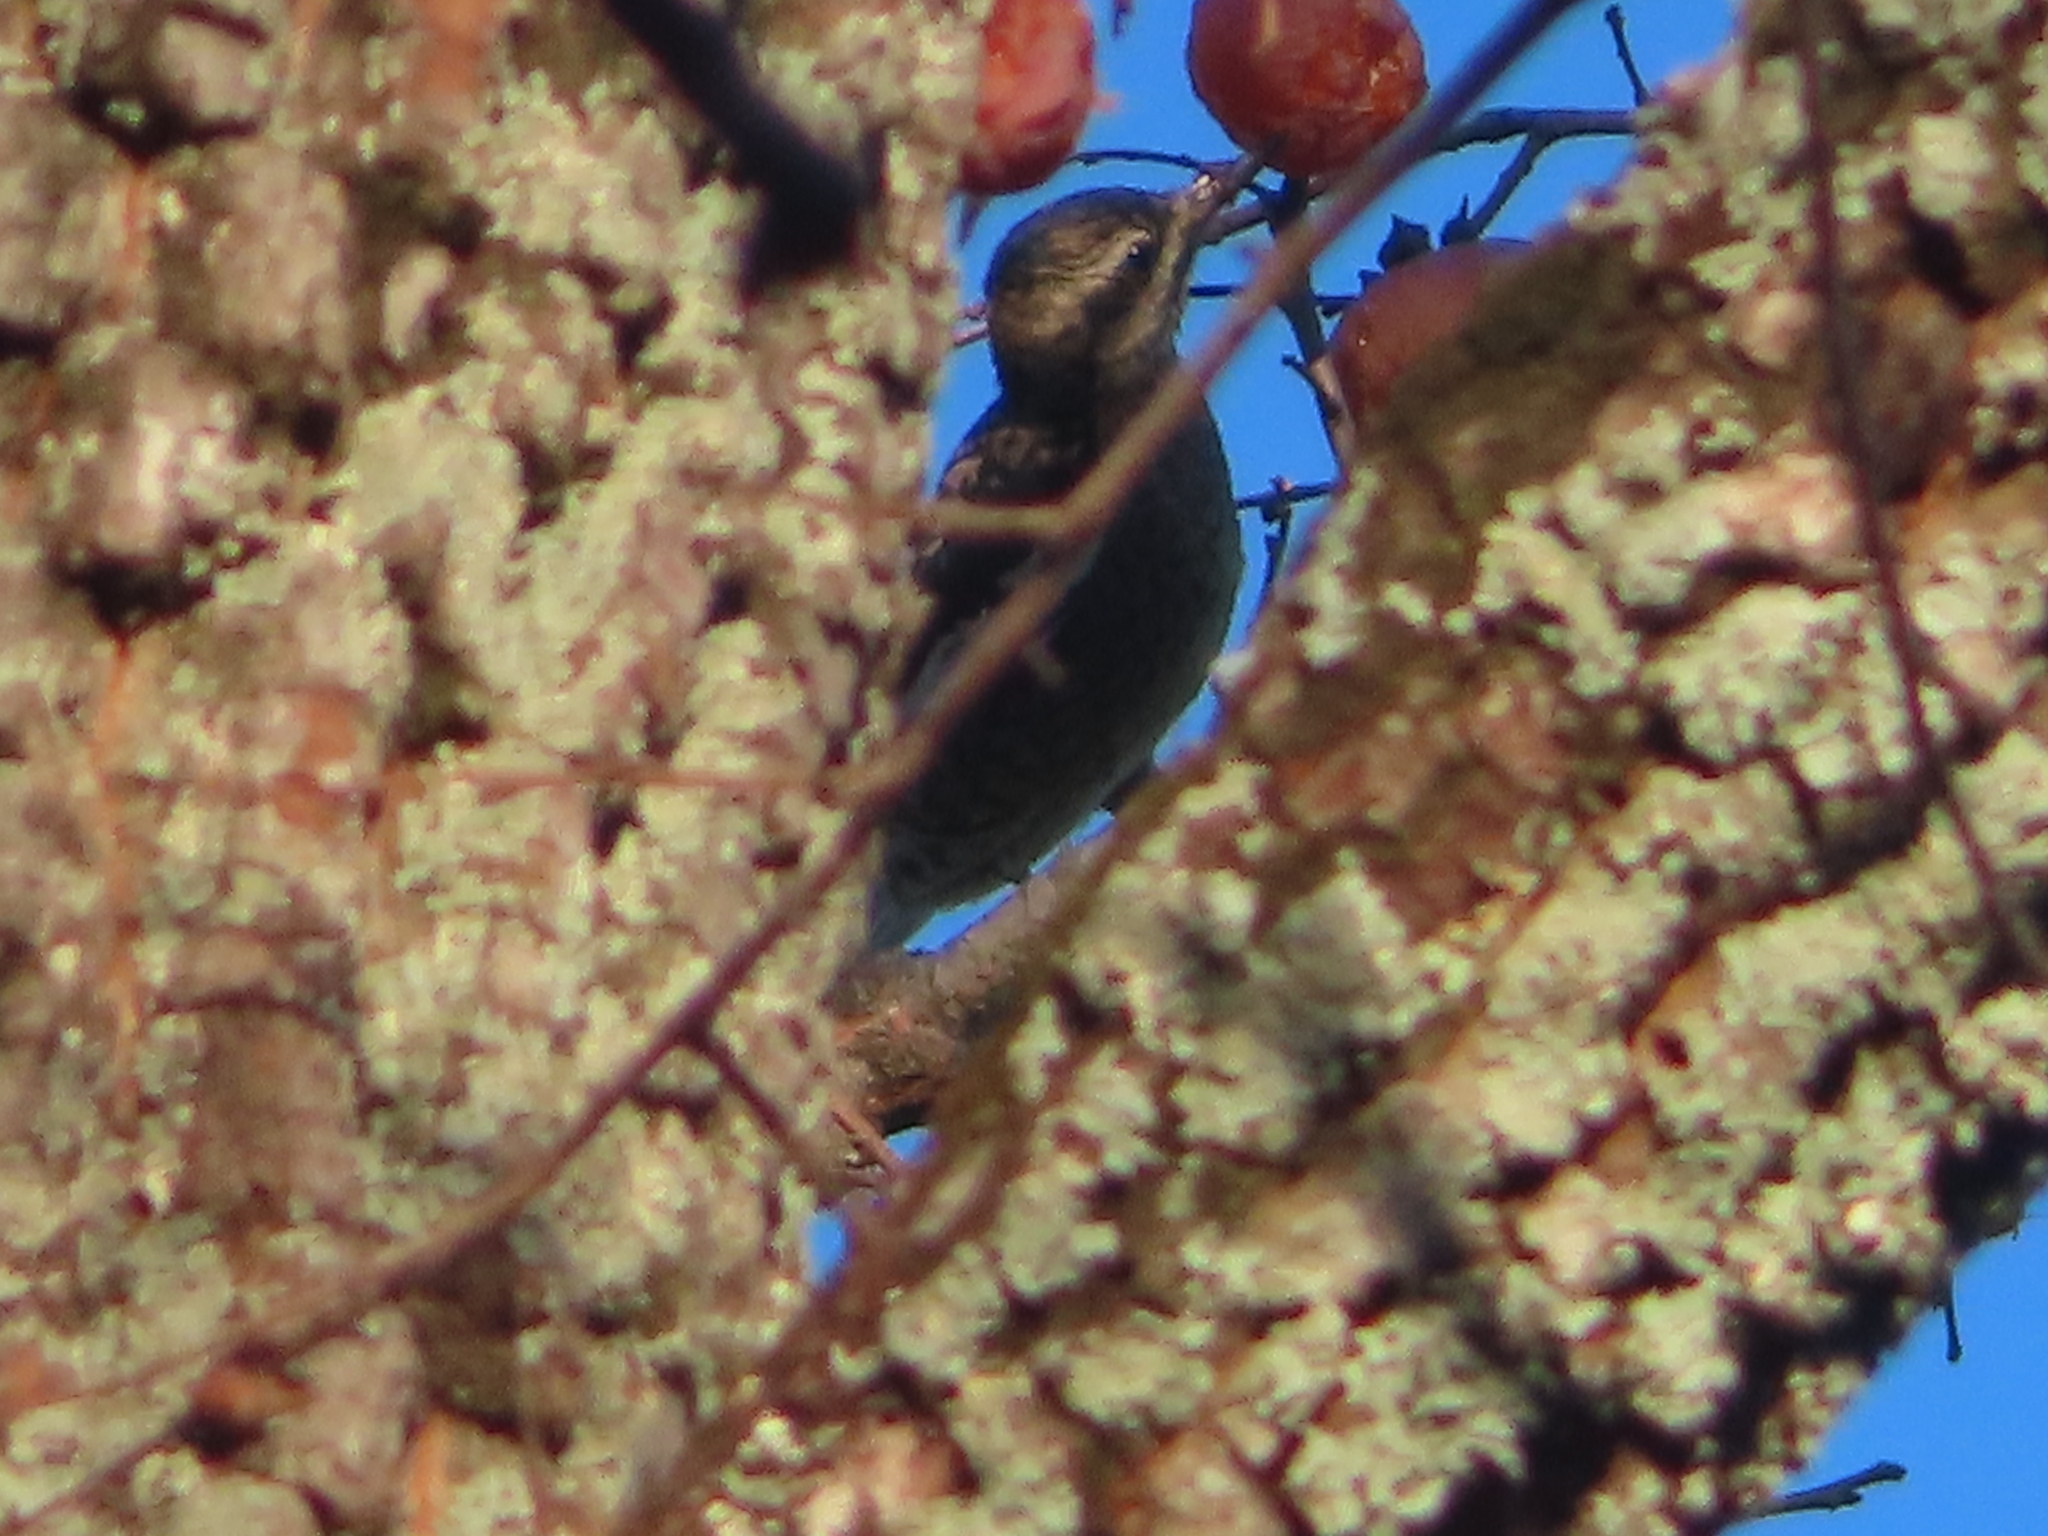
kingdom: Animalia
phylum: Chordata
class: Aves
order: Piciformes
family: Picidae
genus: Sphyrapicus
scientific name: Sphyrapicus varius
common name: Yellow-bellied sapsucker
